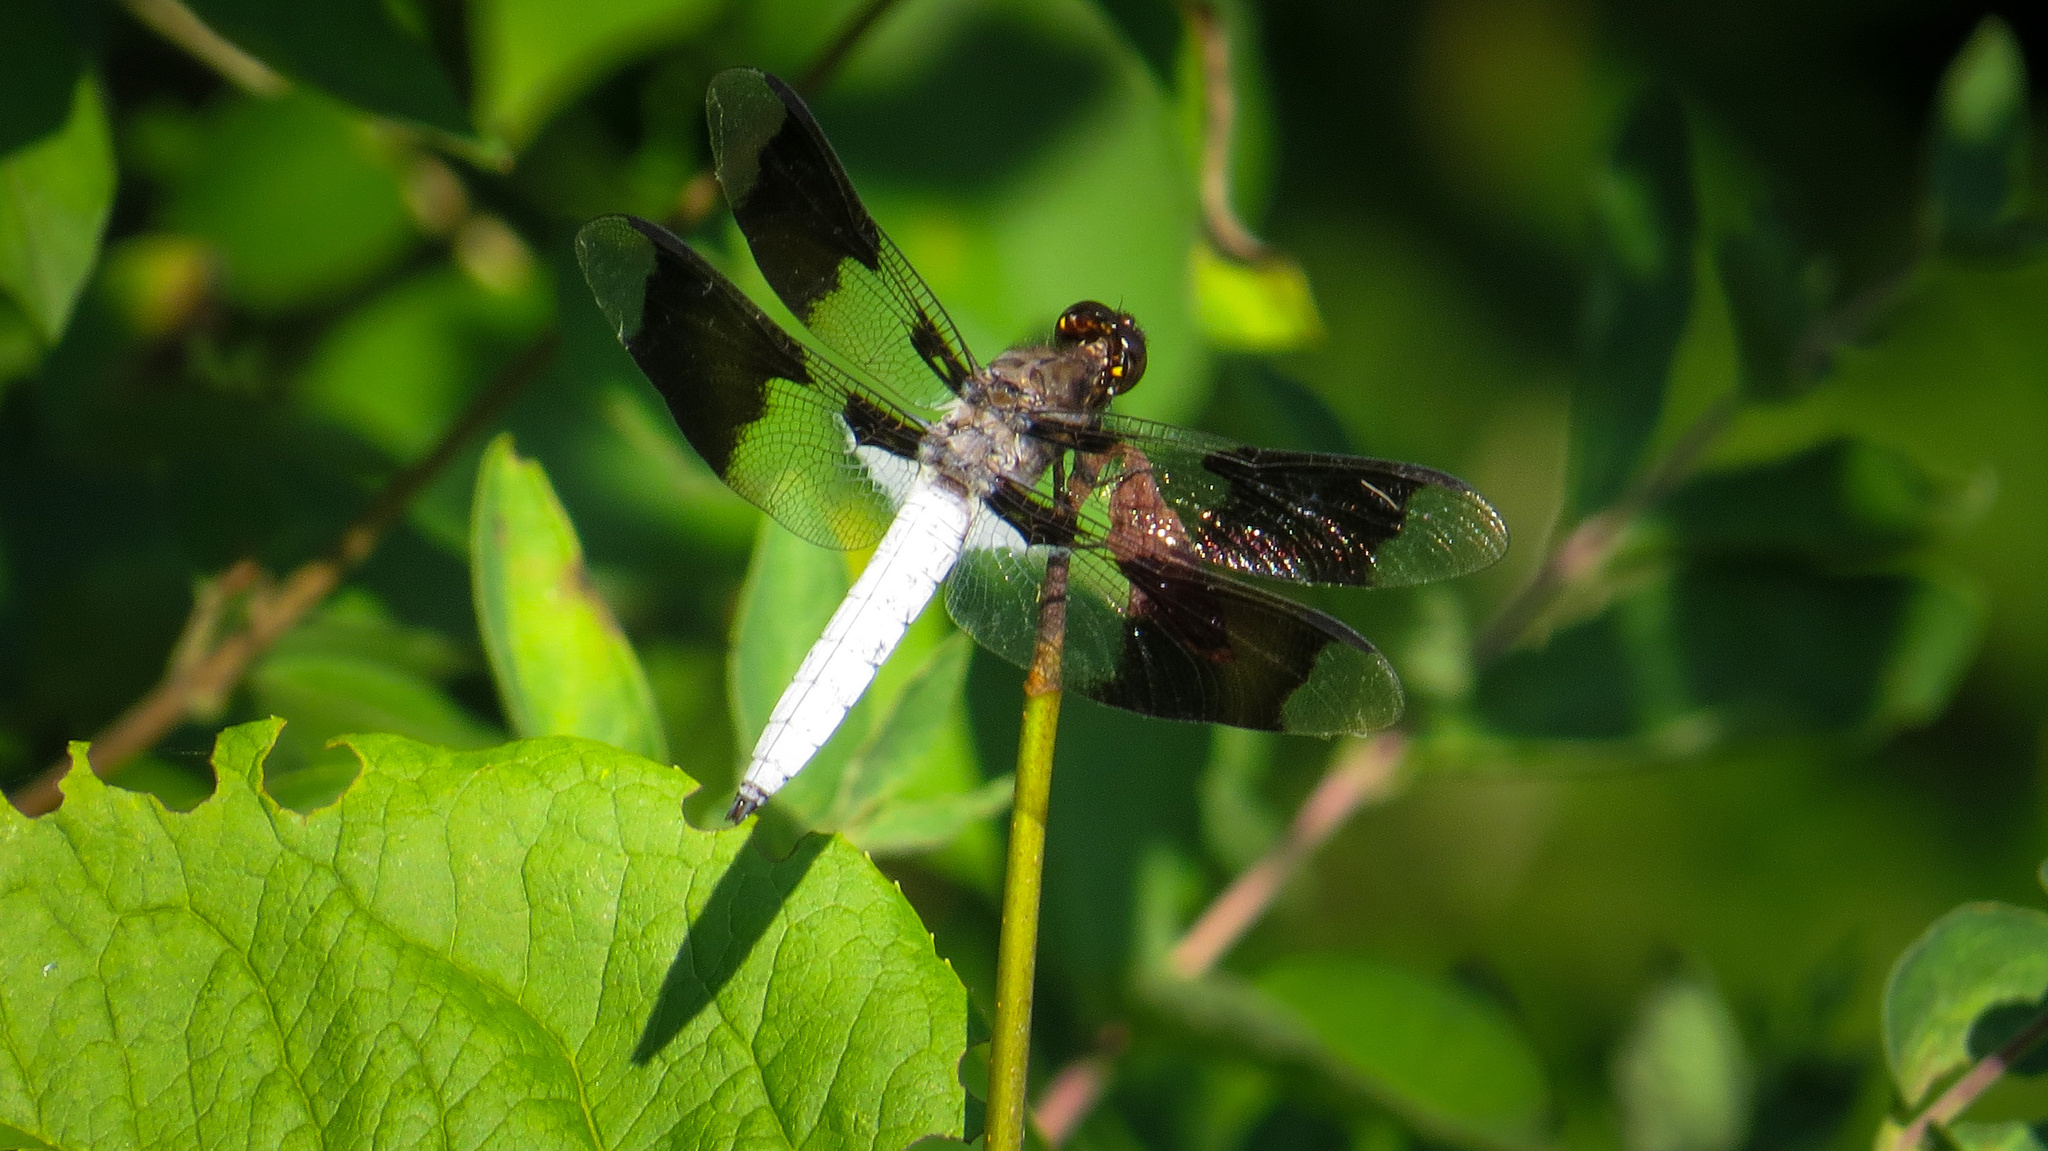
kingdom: Animalia
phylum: Arthropoda
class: Insecta
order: Odonata
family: Libellulidae
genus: Plathemis
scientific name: Plathemis lydia
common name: Common whitetail
